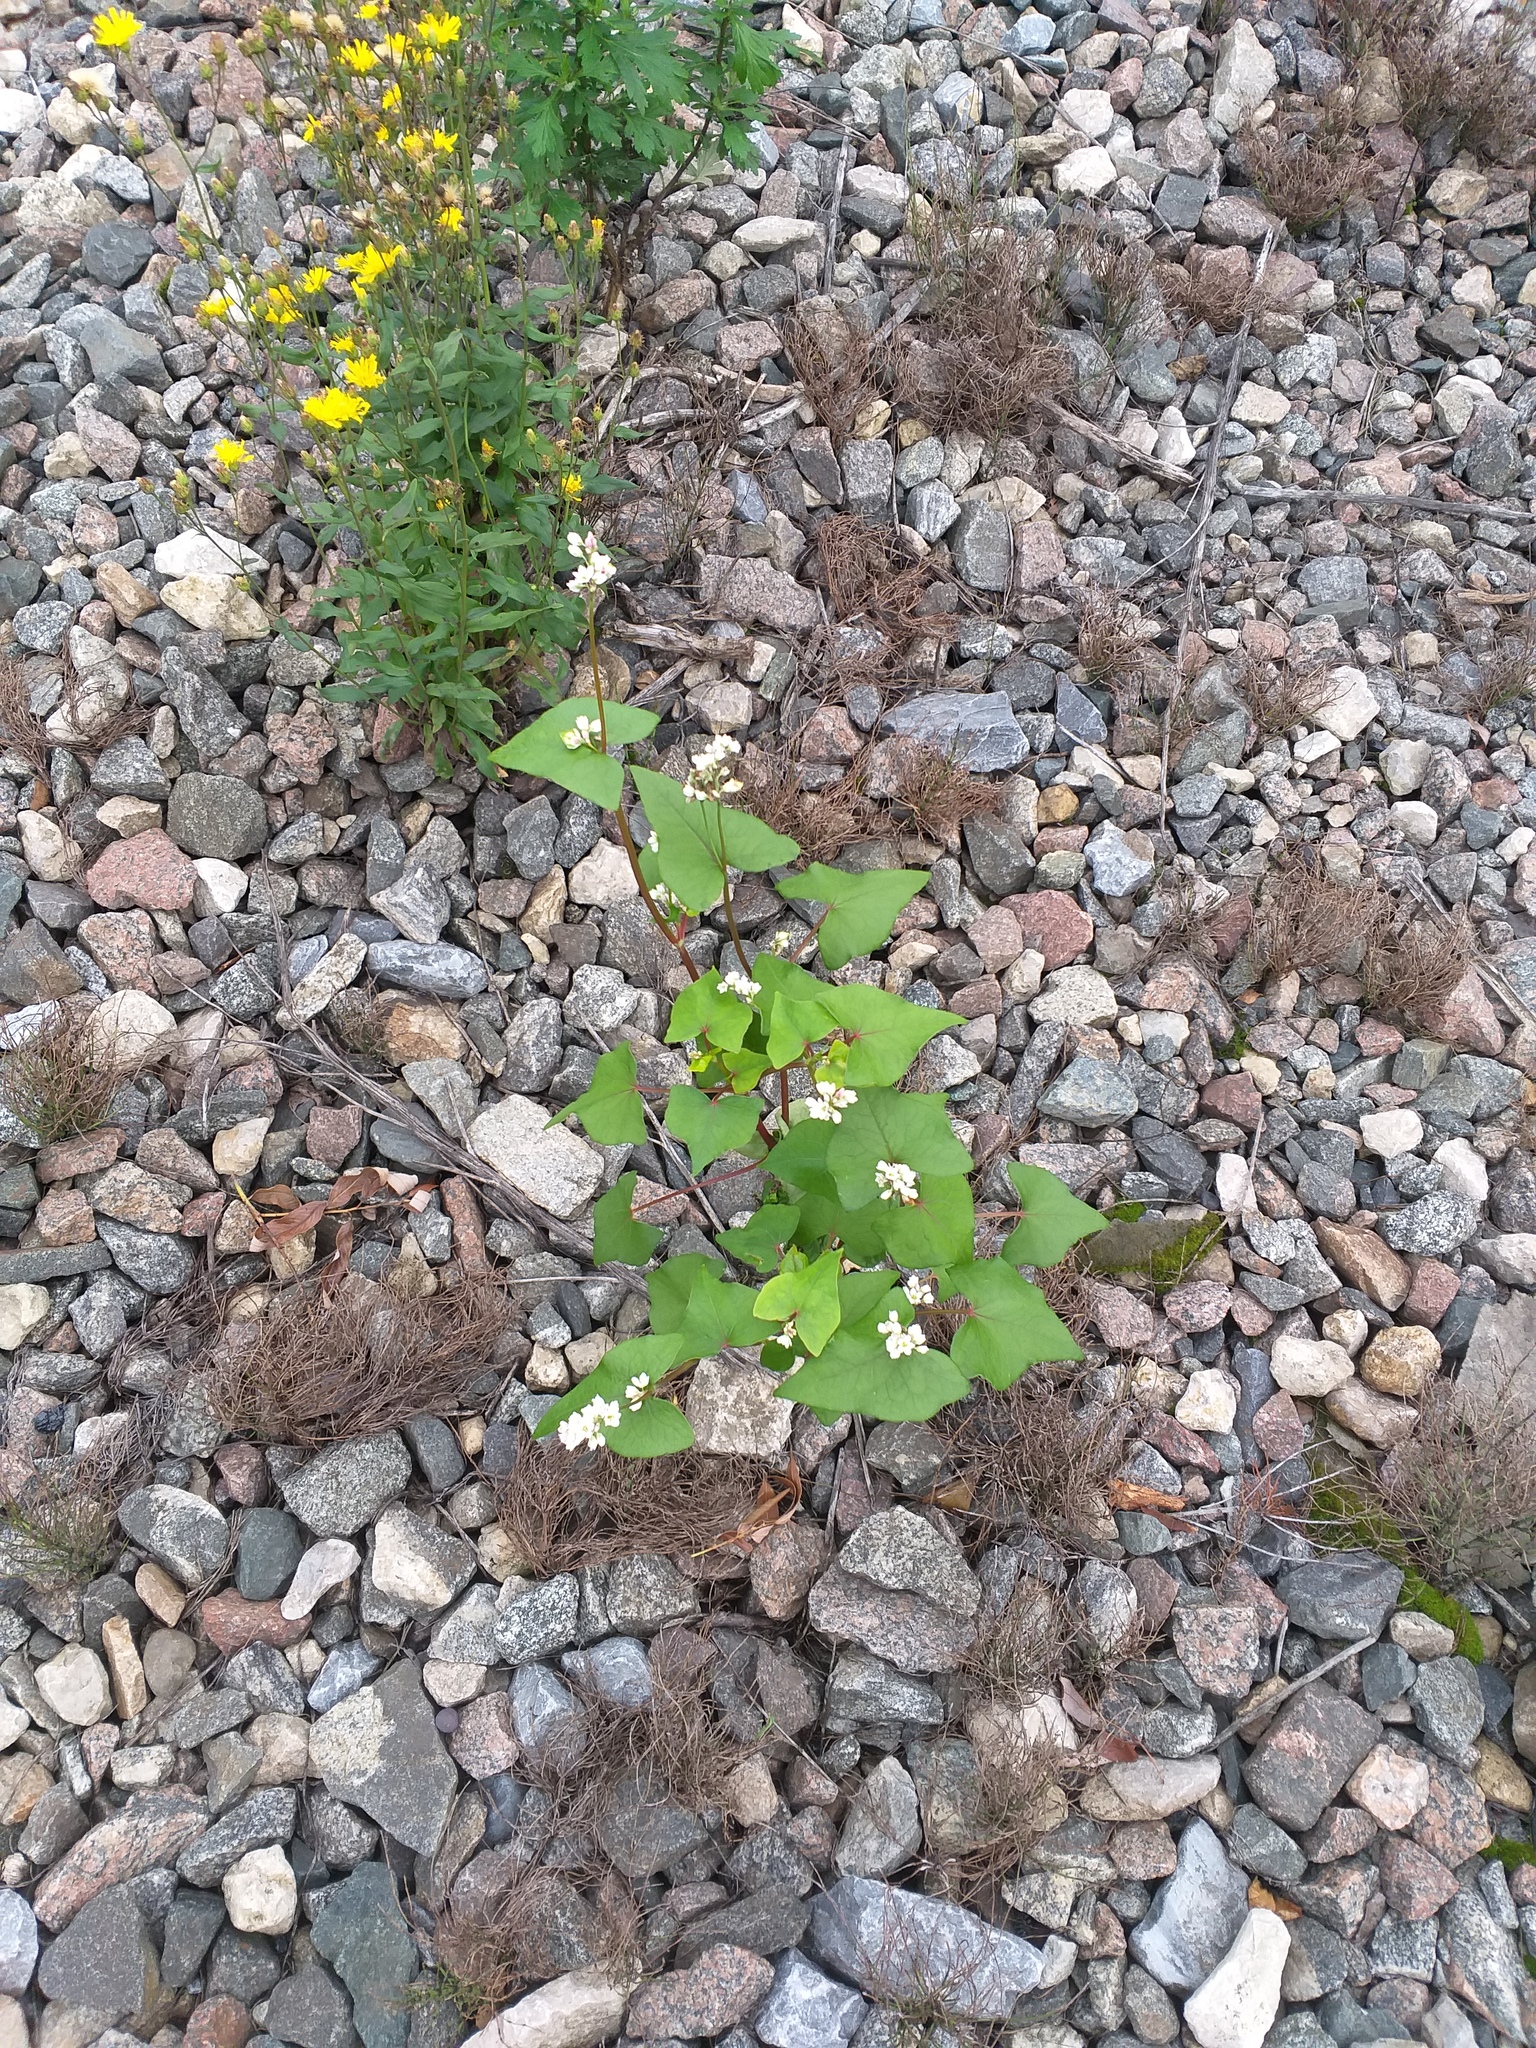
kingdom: Plantae
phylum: Tracheophyta
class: Magnoliopsida
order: Caryophyllales
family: Polygonaceae
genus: Fagopyrum
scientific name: Fagopyrum esculentum
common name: Buckwheat
